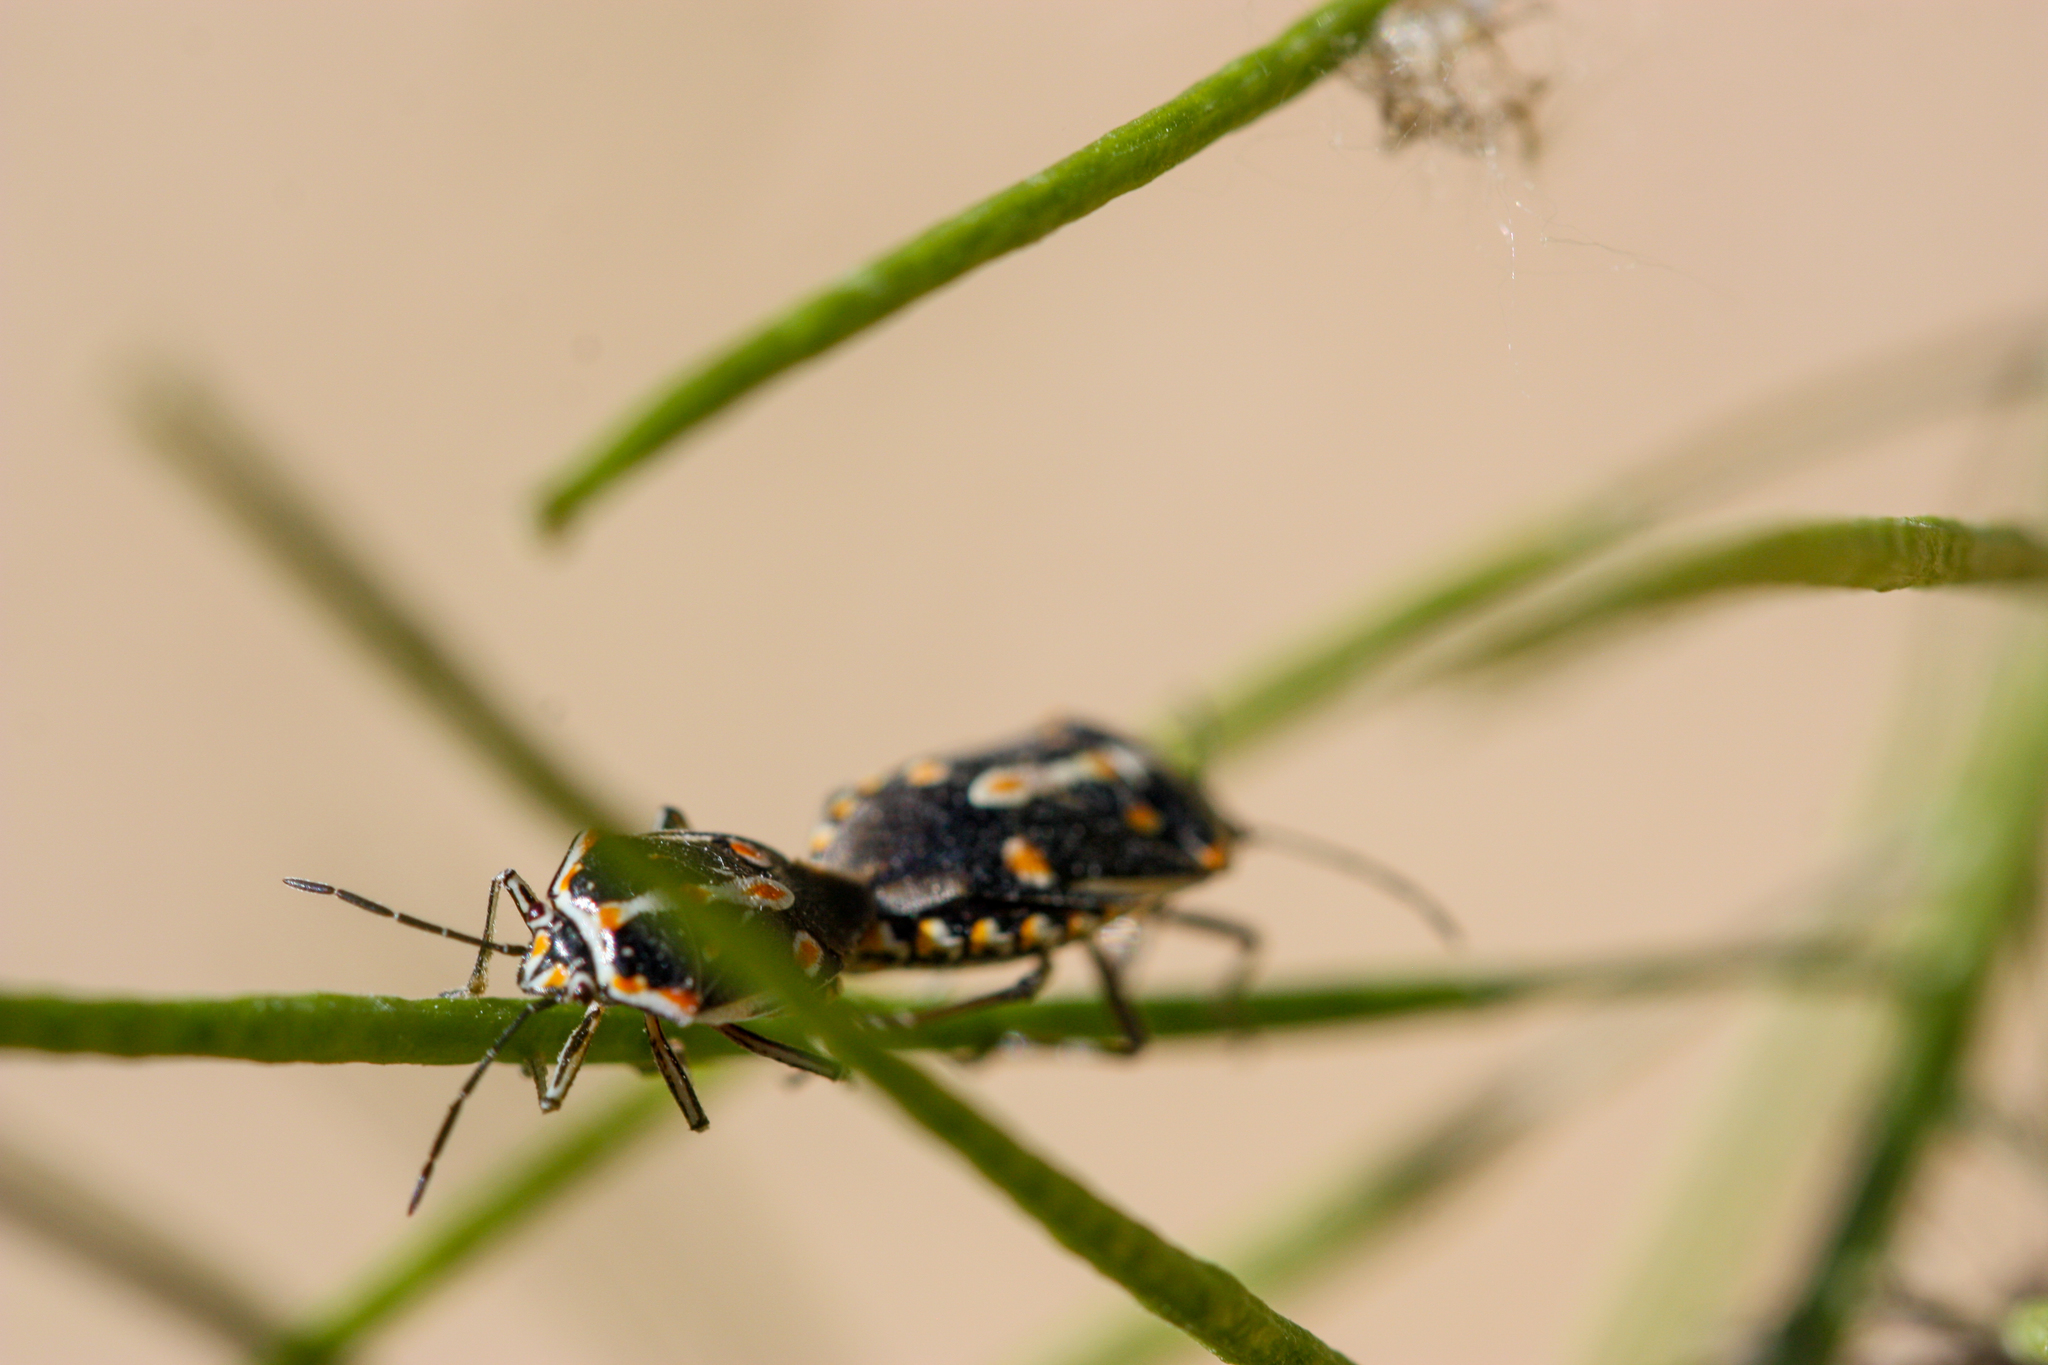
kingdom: Animalia
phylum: Arthropoda
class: Insecta
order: Hemiptera
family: Pentatomidae
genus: Bagrada
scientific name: Bagrada hilaris
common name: Bagrada bug
